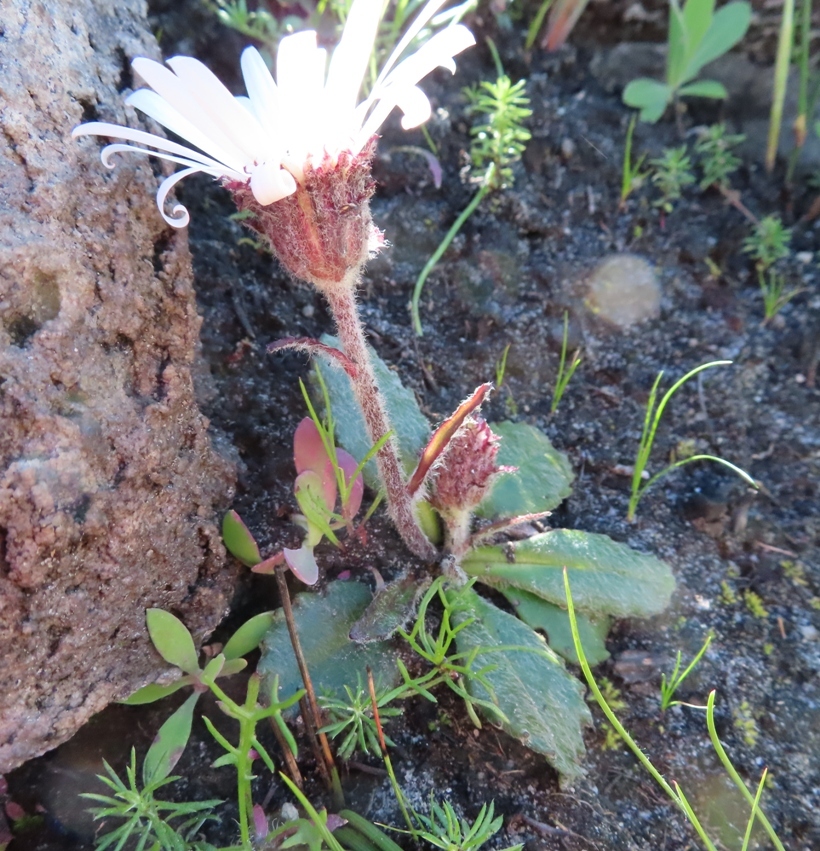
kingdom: Plantae
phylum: Tracheophyta
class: Magnoliopsida
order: Asterales
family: Asteraceae
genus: Zyrphelis
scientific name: Zyrphelis crenata
